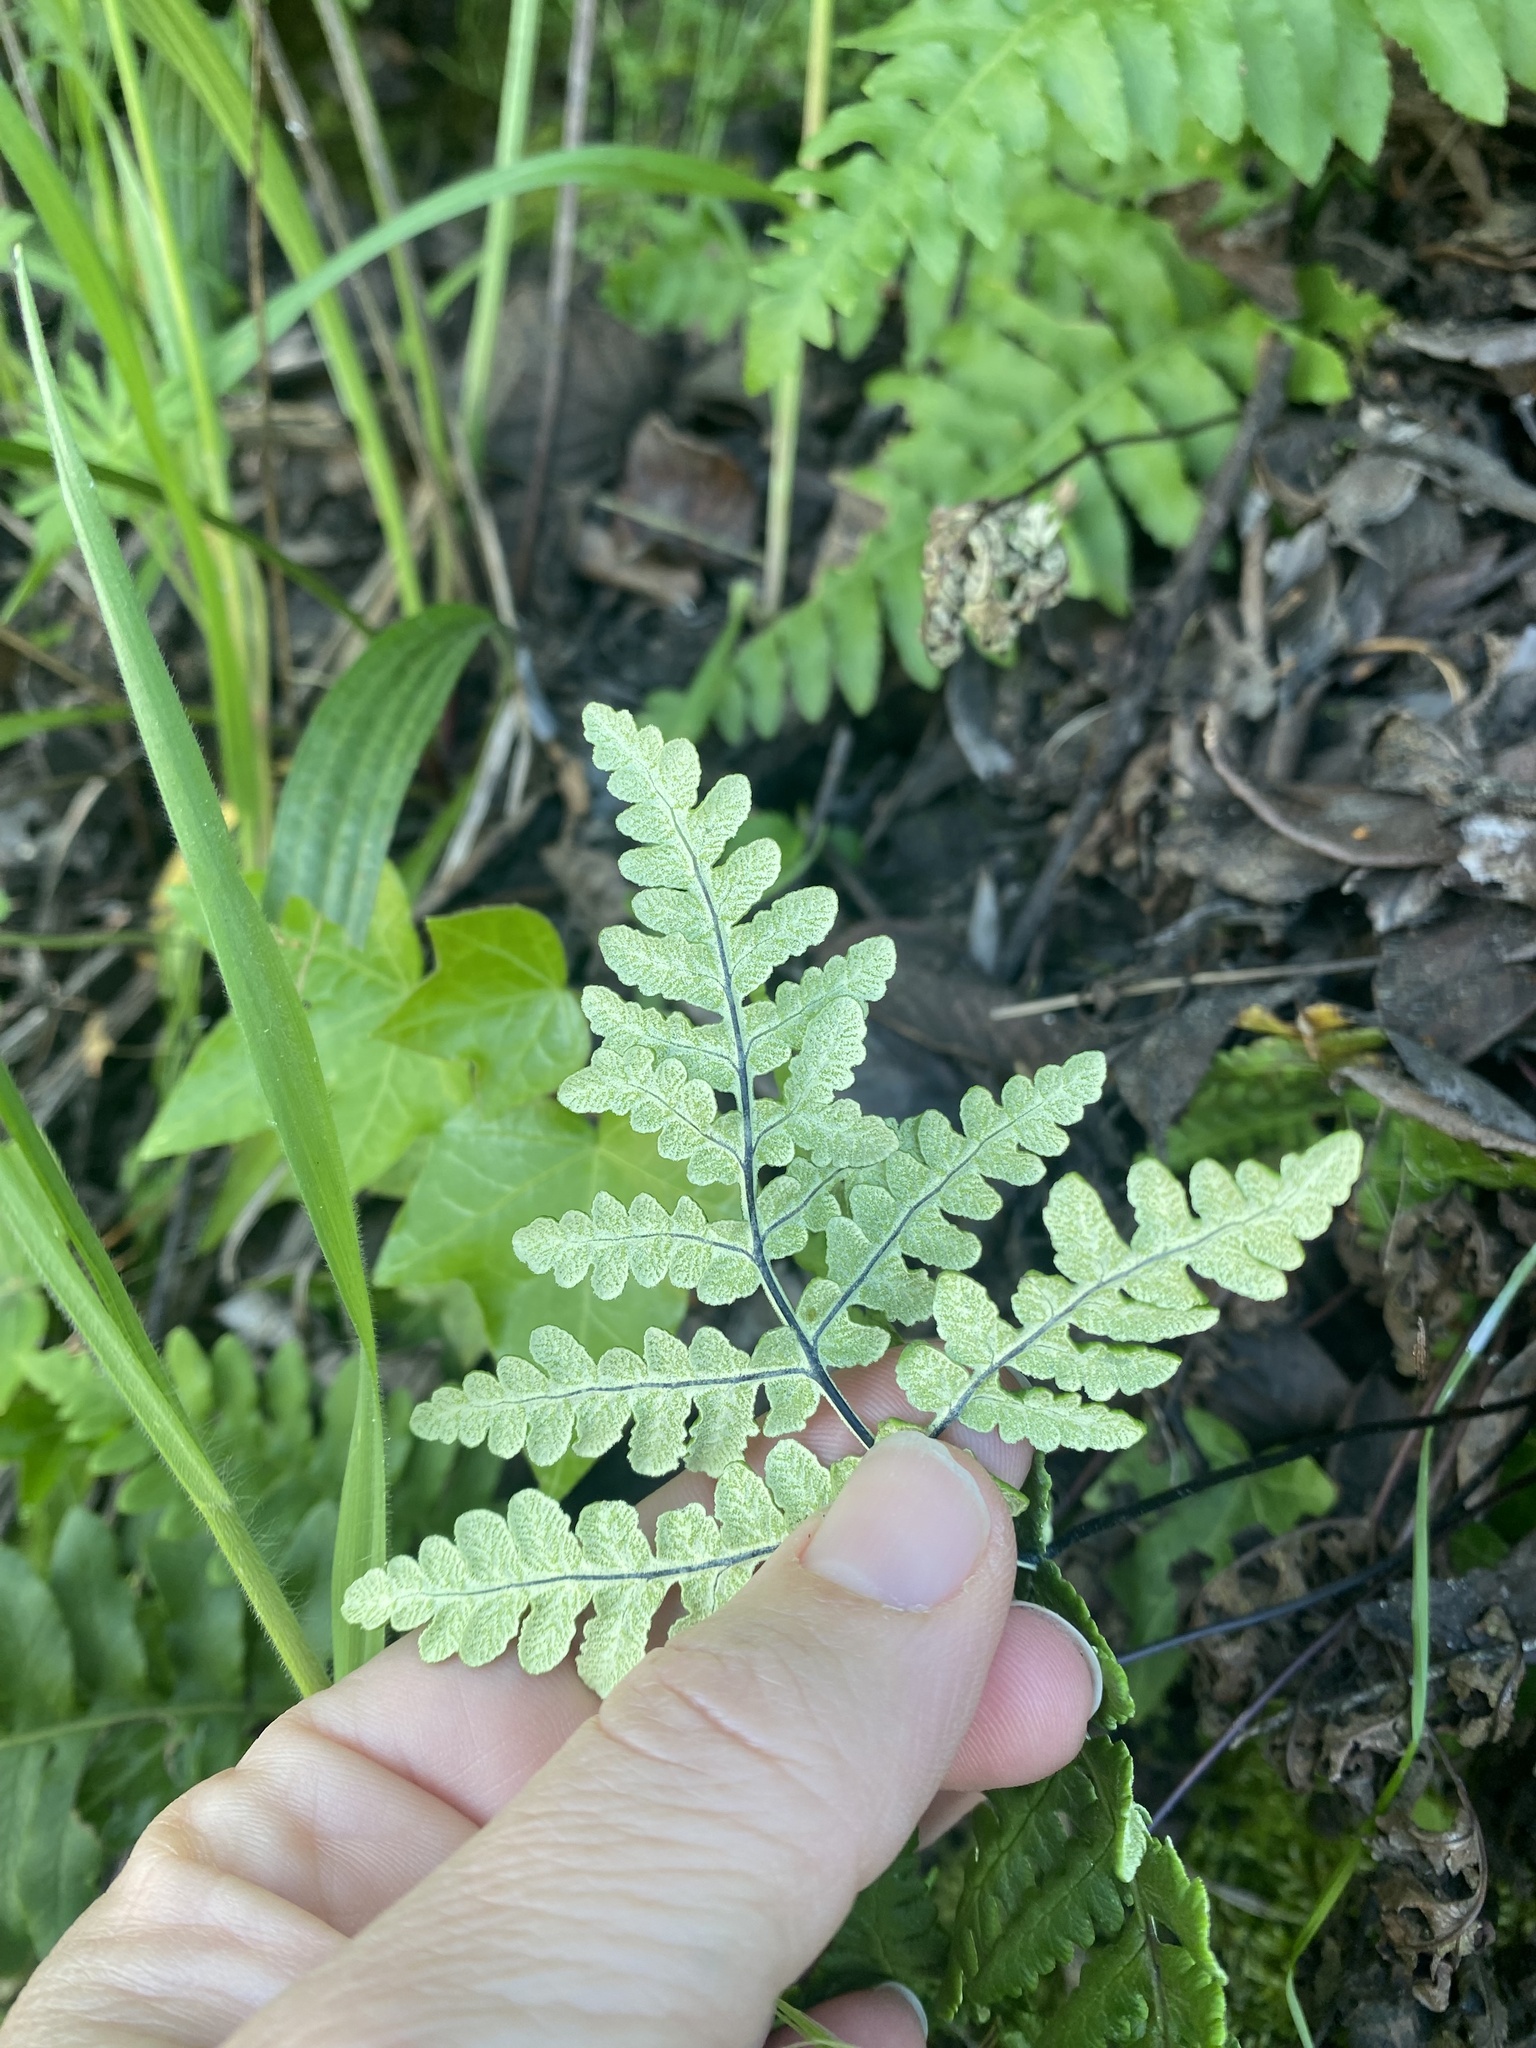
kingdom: Plantae
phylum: Tracheophyta
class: Polypodiopsida
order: Polypodiales
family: Pteridaceae
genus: Pentagramma
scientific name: Pentagramma triangularis
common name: Gold fern
